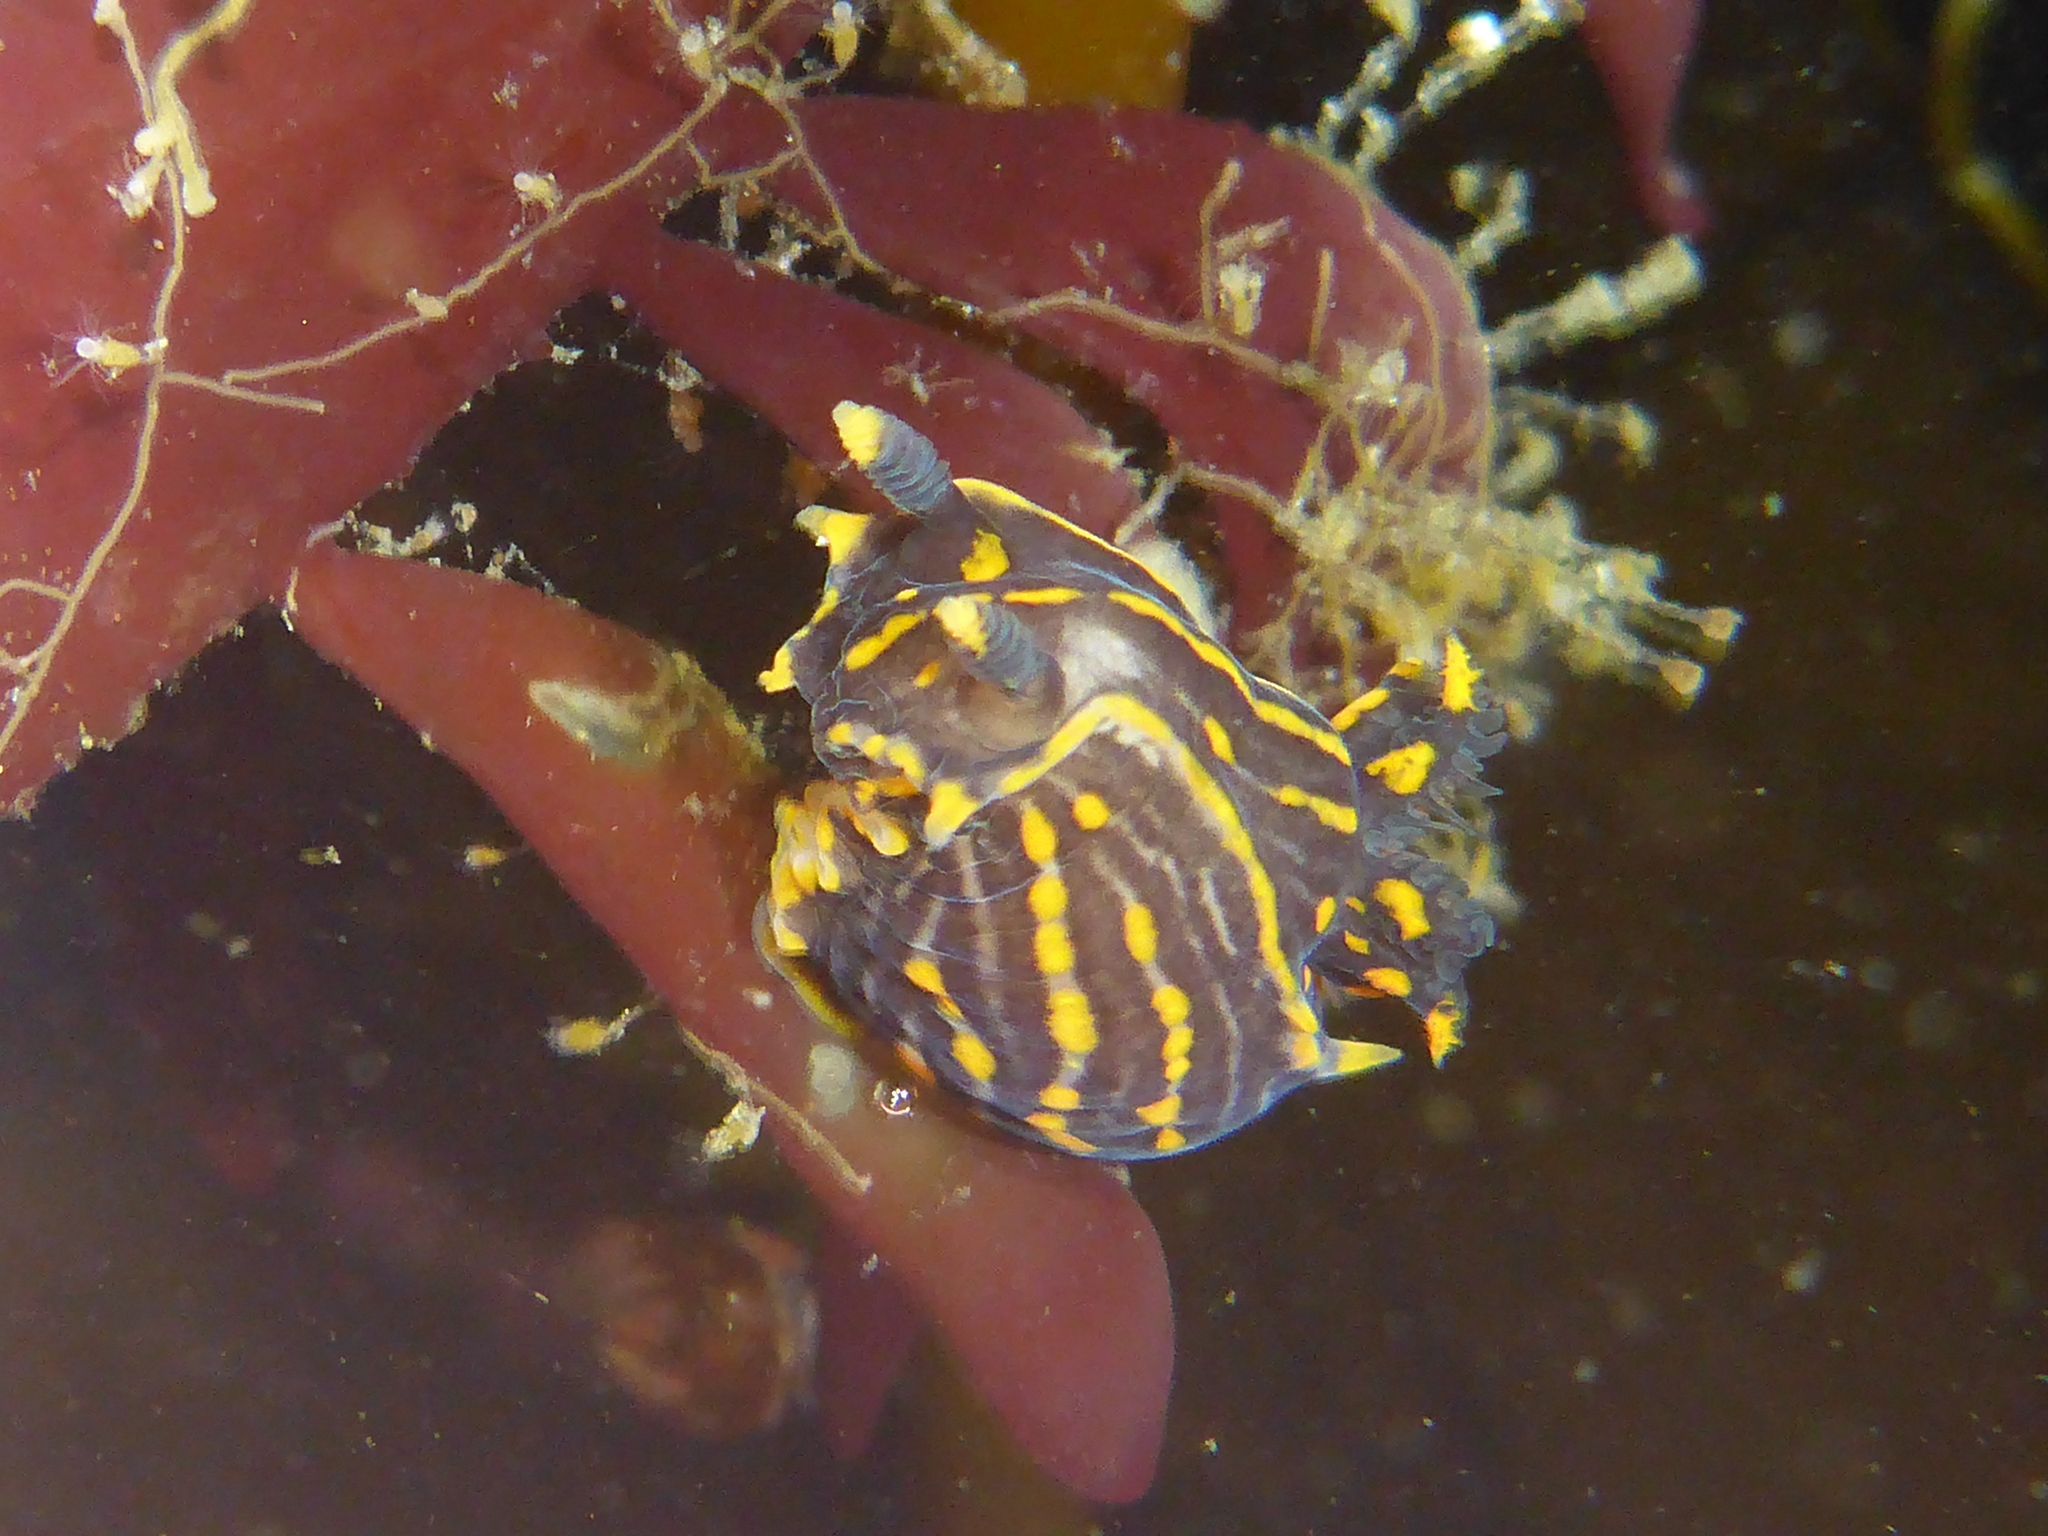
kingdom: Animalia
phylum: Mollusca
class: Gastropoda
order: Nudibranchia
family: Polyceridae
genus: Polycera
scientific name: Polycera atra
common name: Orange-spike polycera
